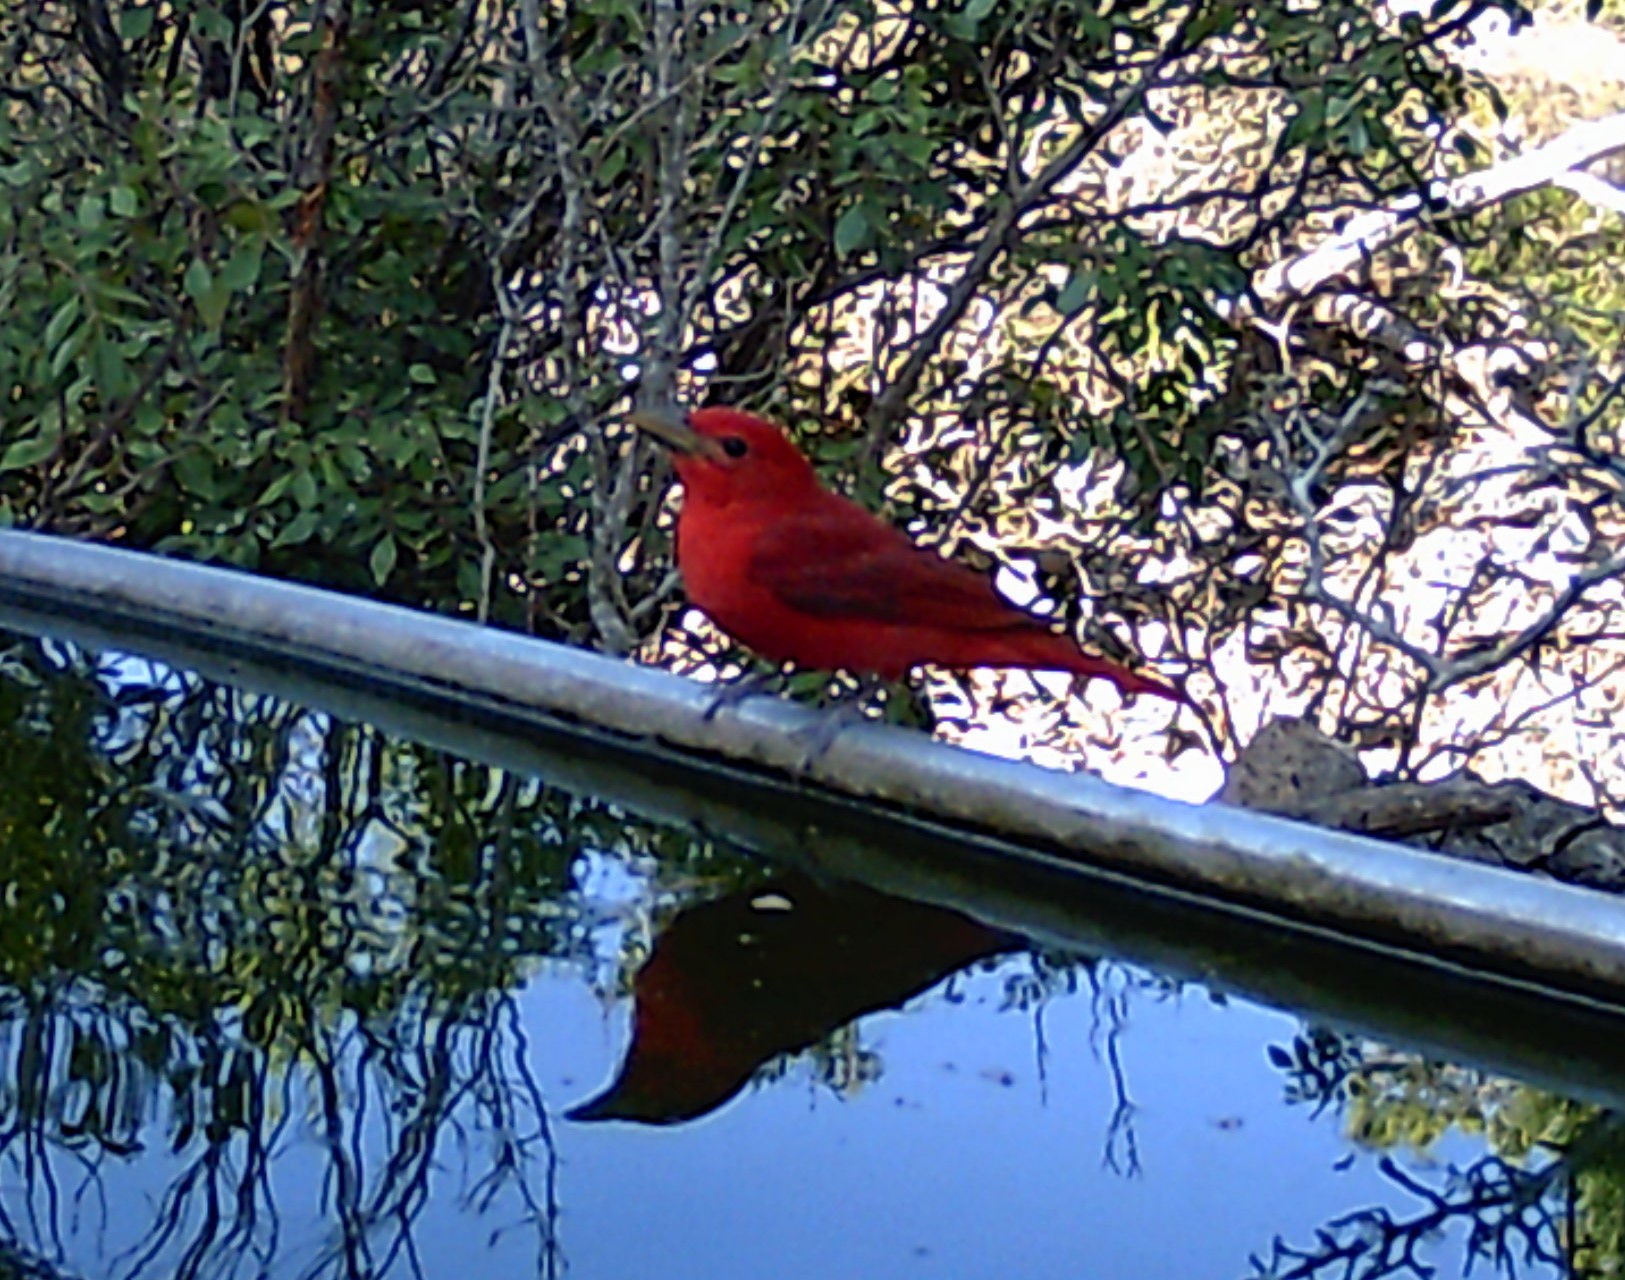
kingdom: Animalia
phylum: Chordata
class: Aves
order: Passeriformes
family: Cardinalidae
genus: Piranga
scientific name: Piranga rubra
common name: Summer tanager
